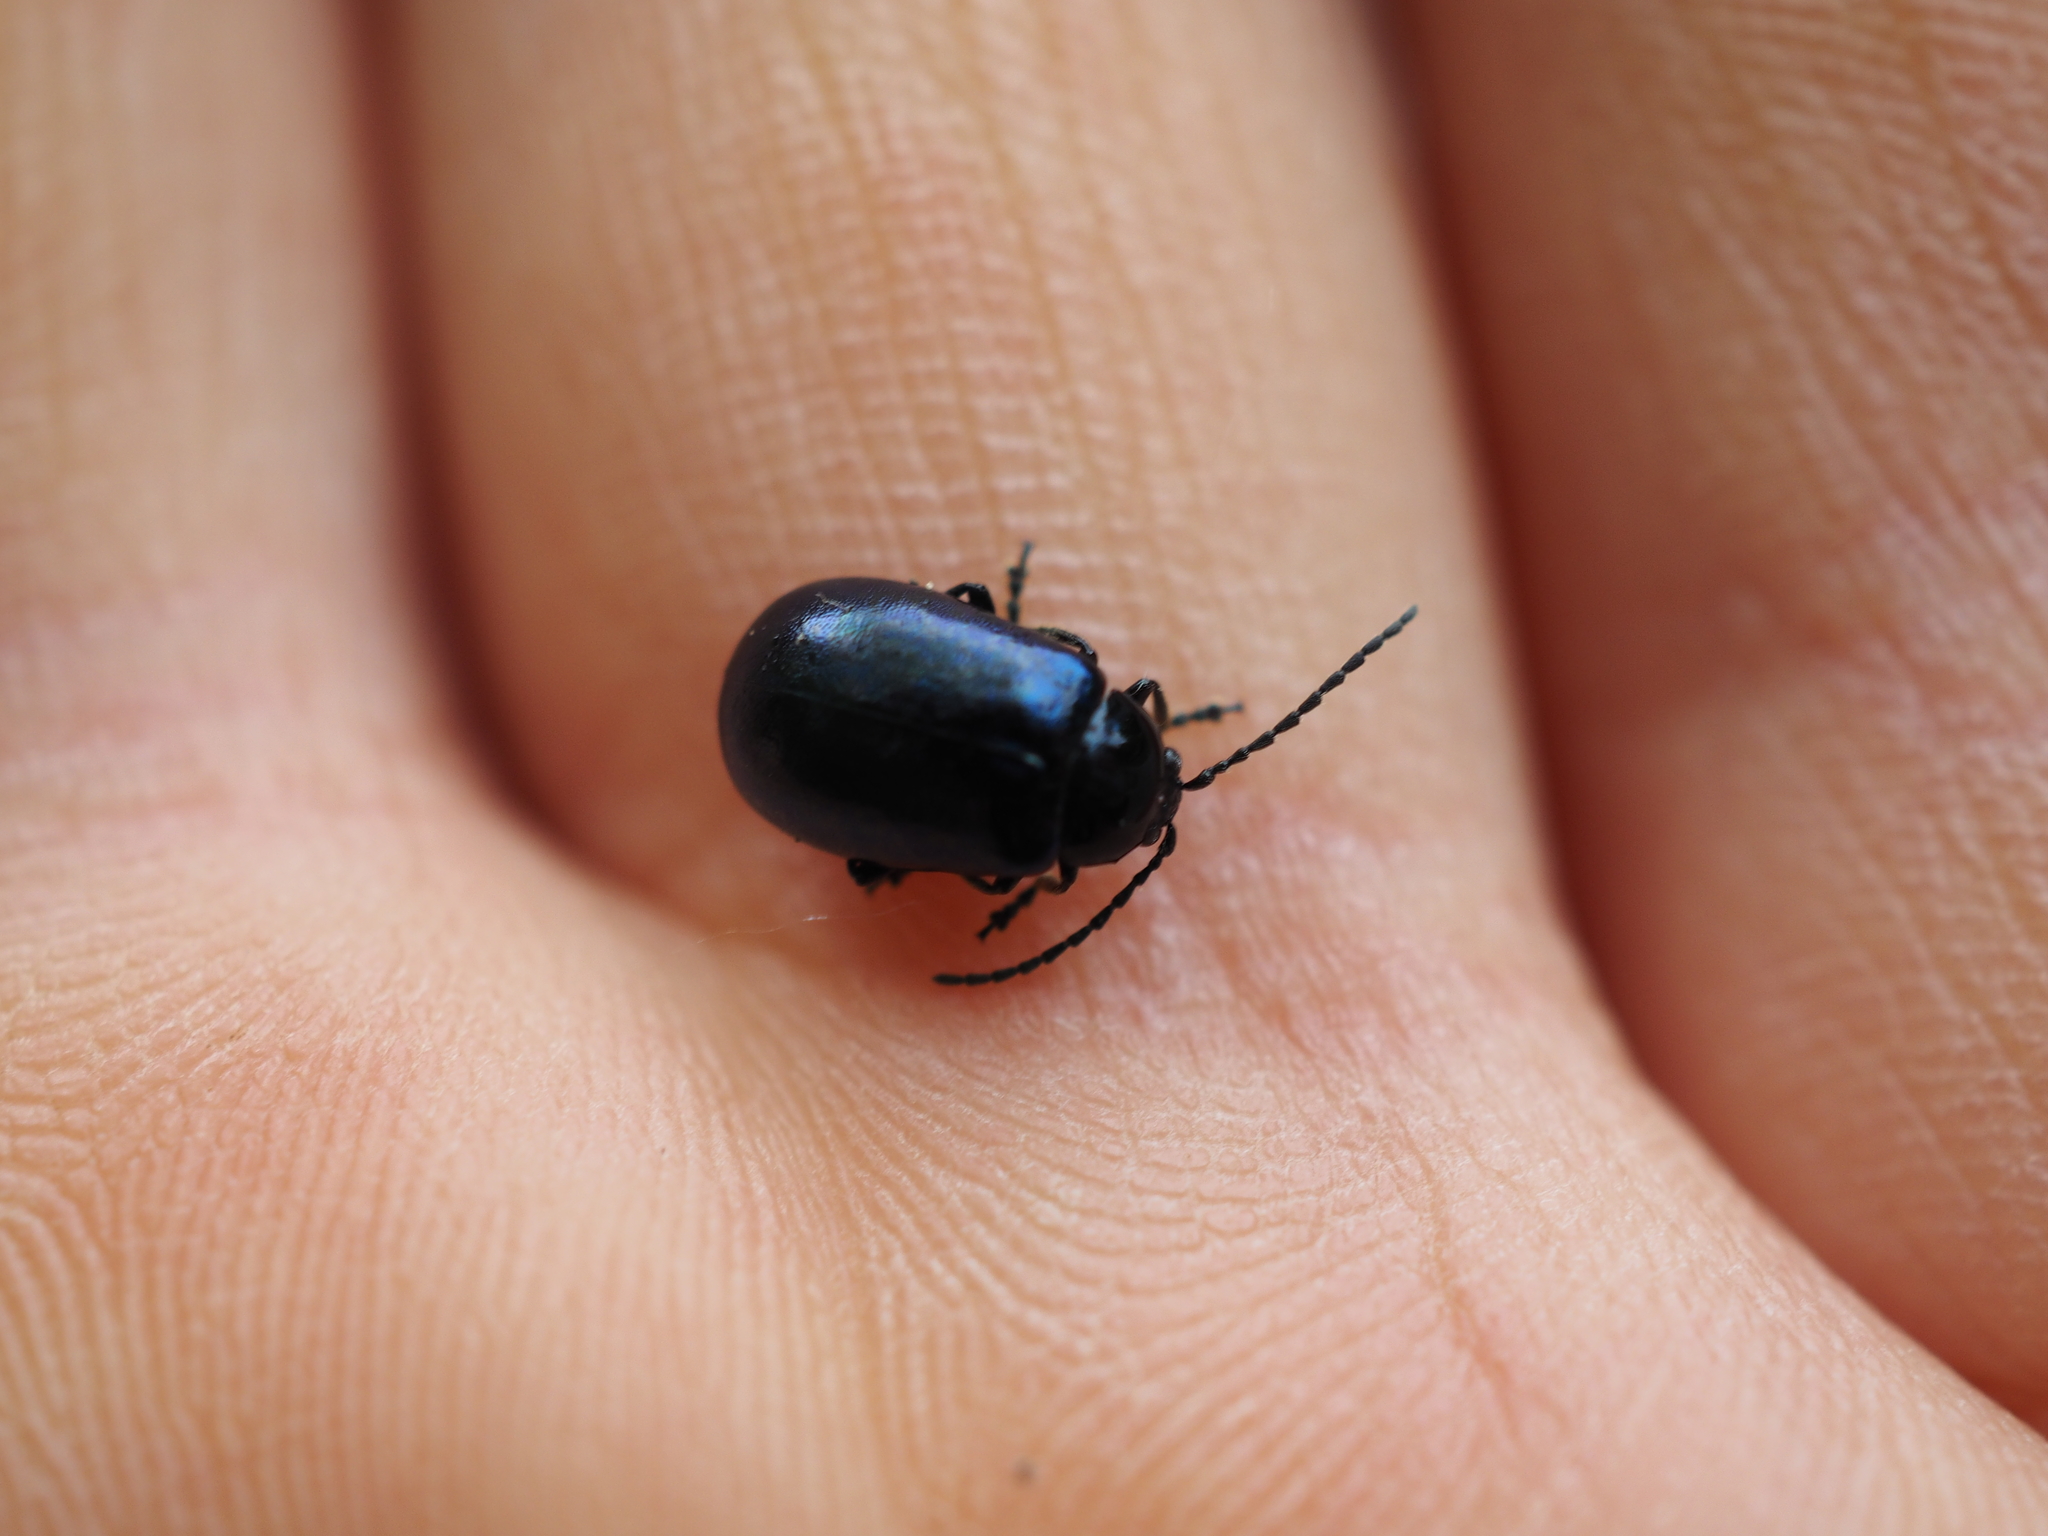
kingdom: Animalia
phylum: Arthropoda
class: Insecta
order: Coleoptera
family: Chrysomelidae
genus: Agelastica
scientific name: Agelastica alni
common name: Alder leaf beetle
